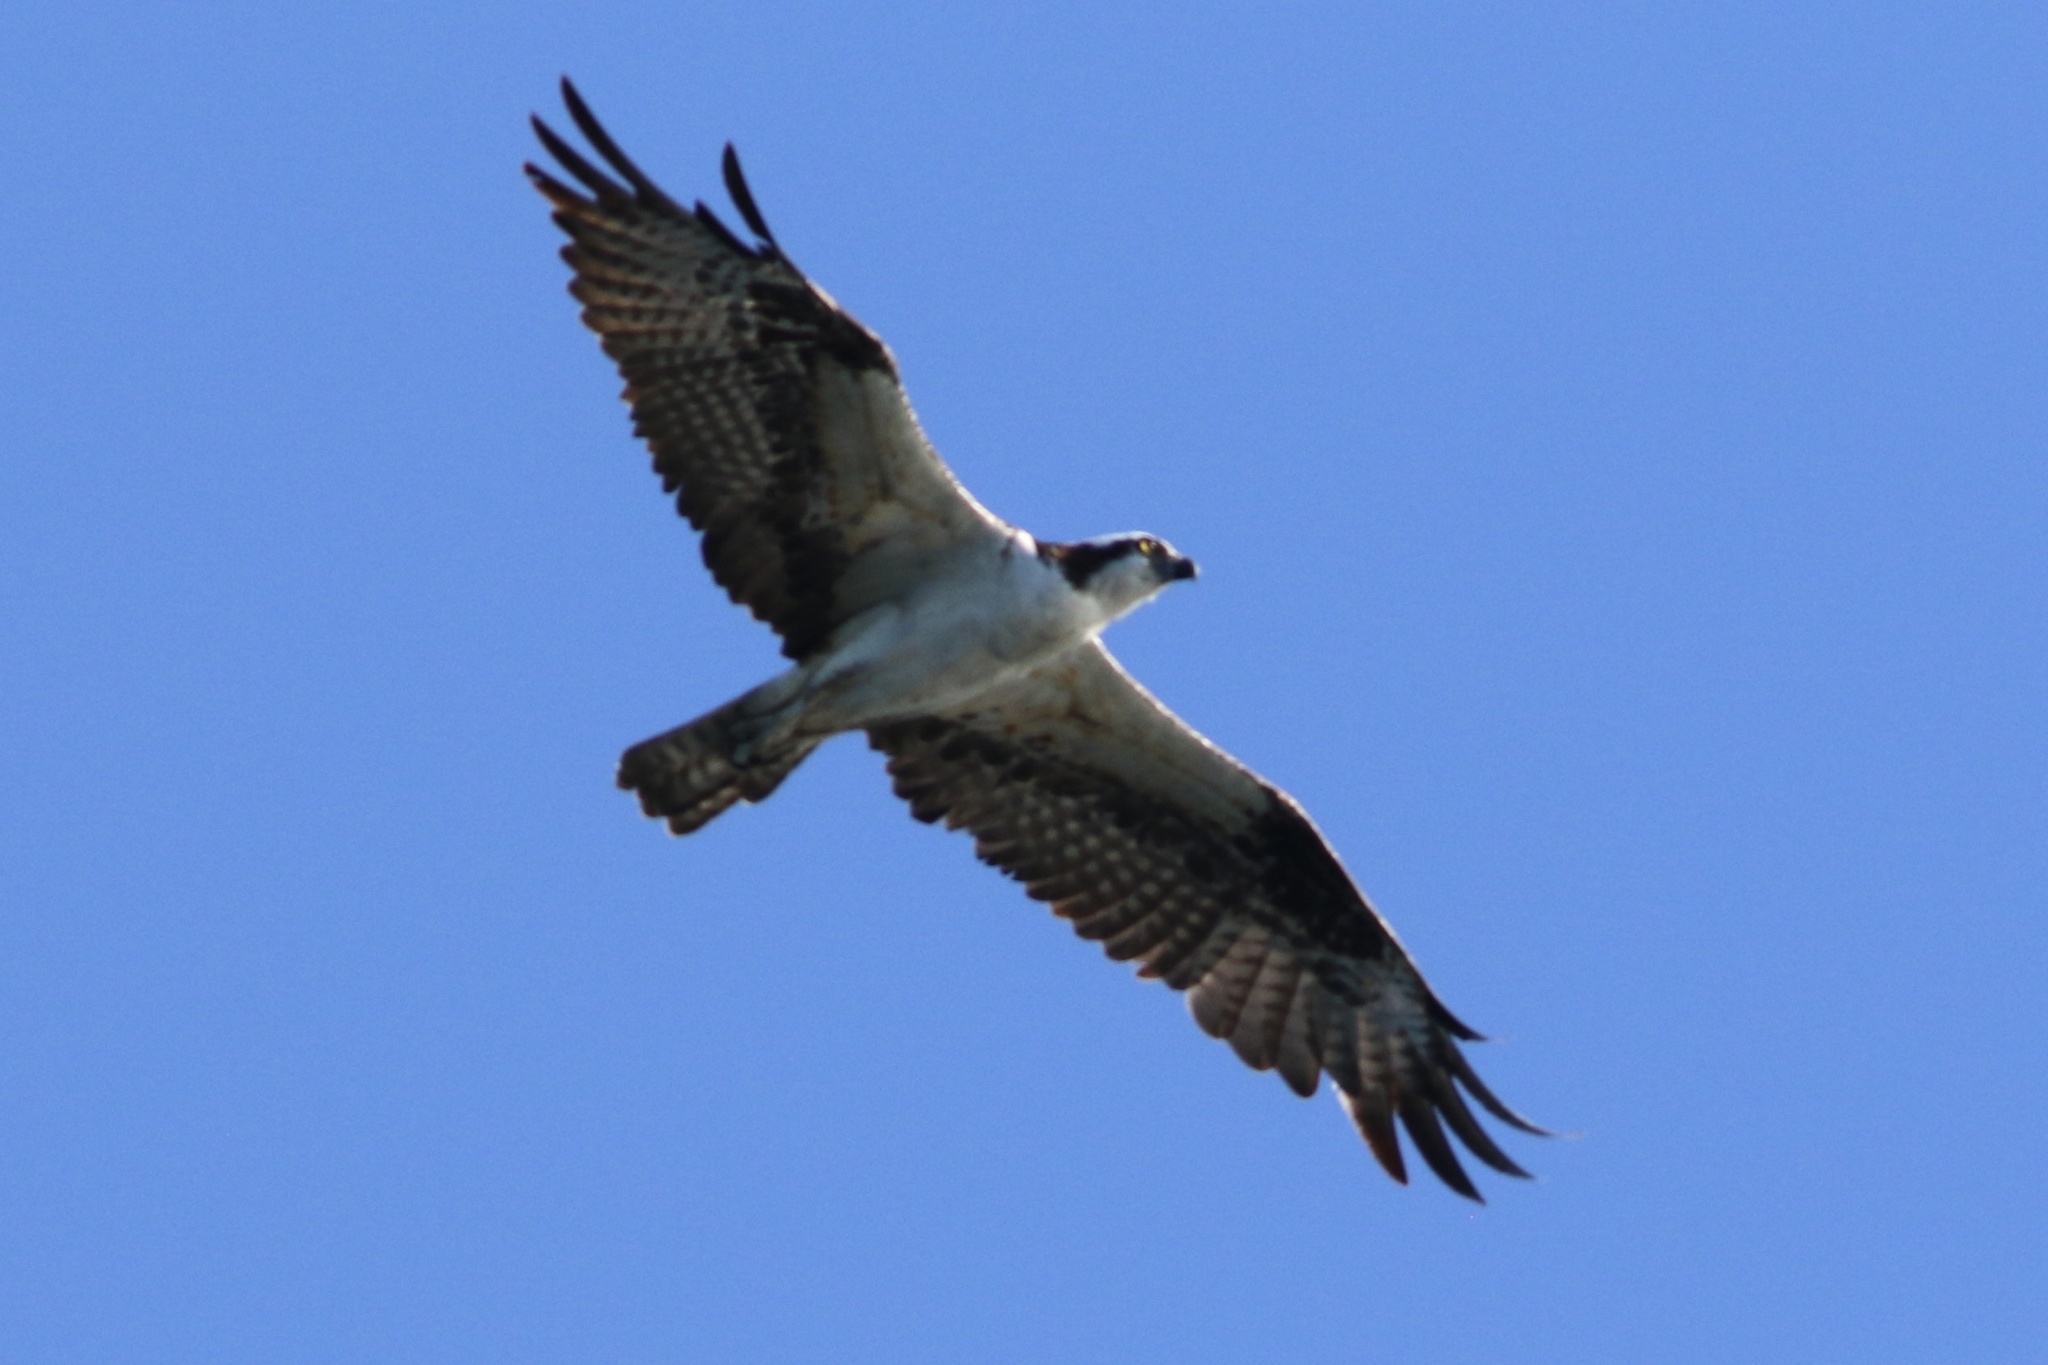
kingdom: Animalia
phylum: Chordata
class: Aves
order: Accipitriformes
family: Pandionidae
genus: Pandion
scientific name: Pandion haliaetus
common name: Osprey
